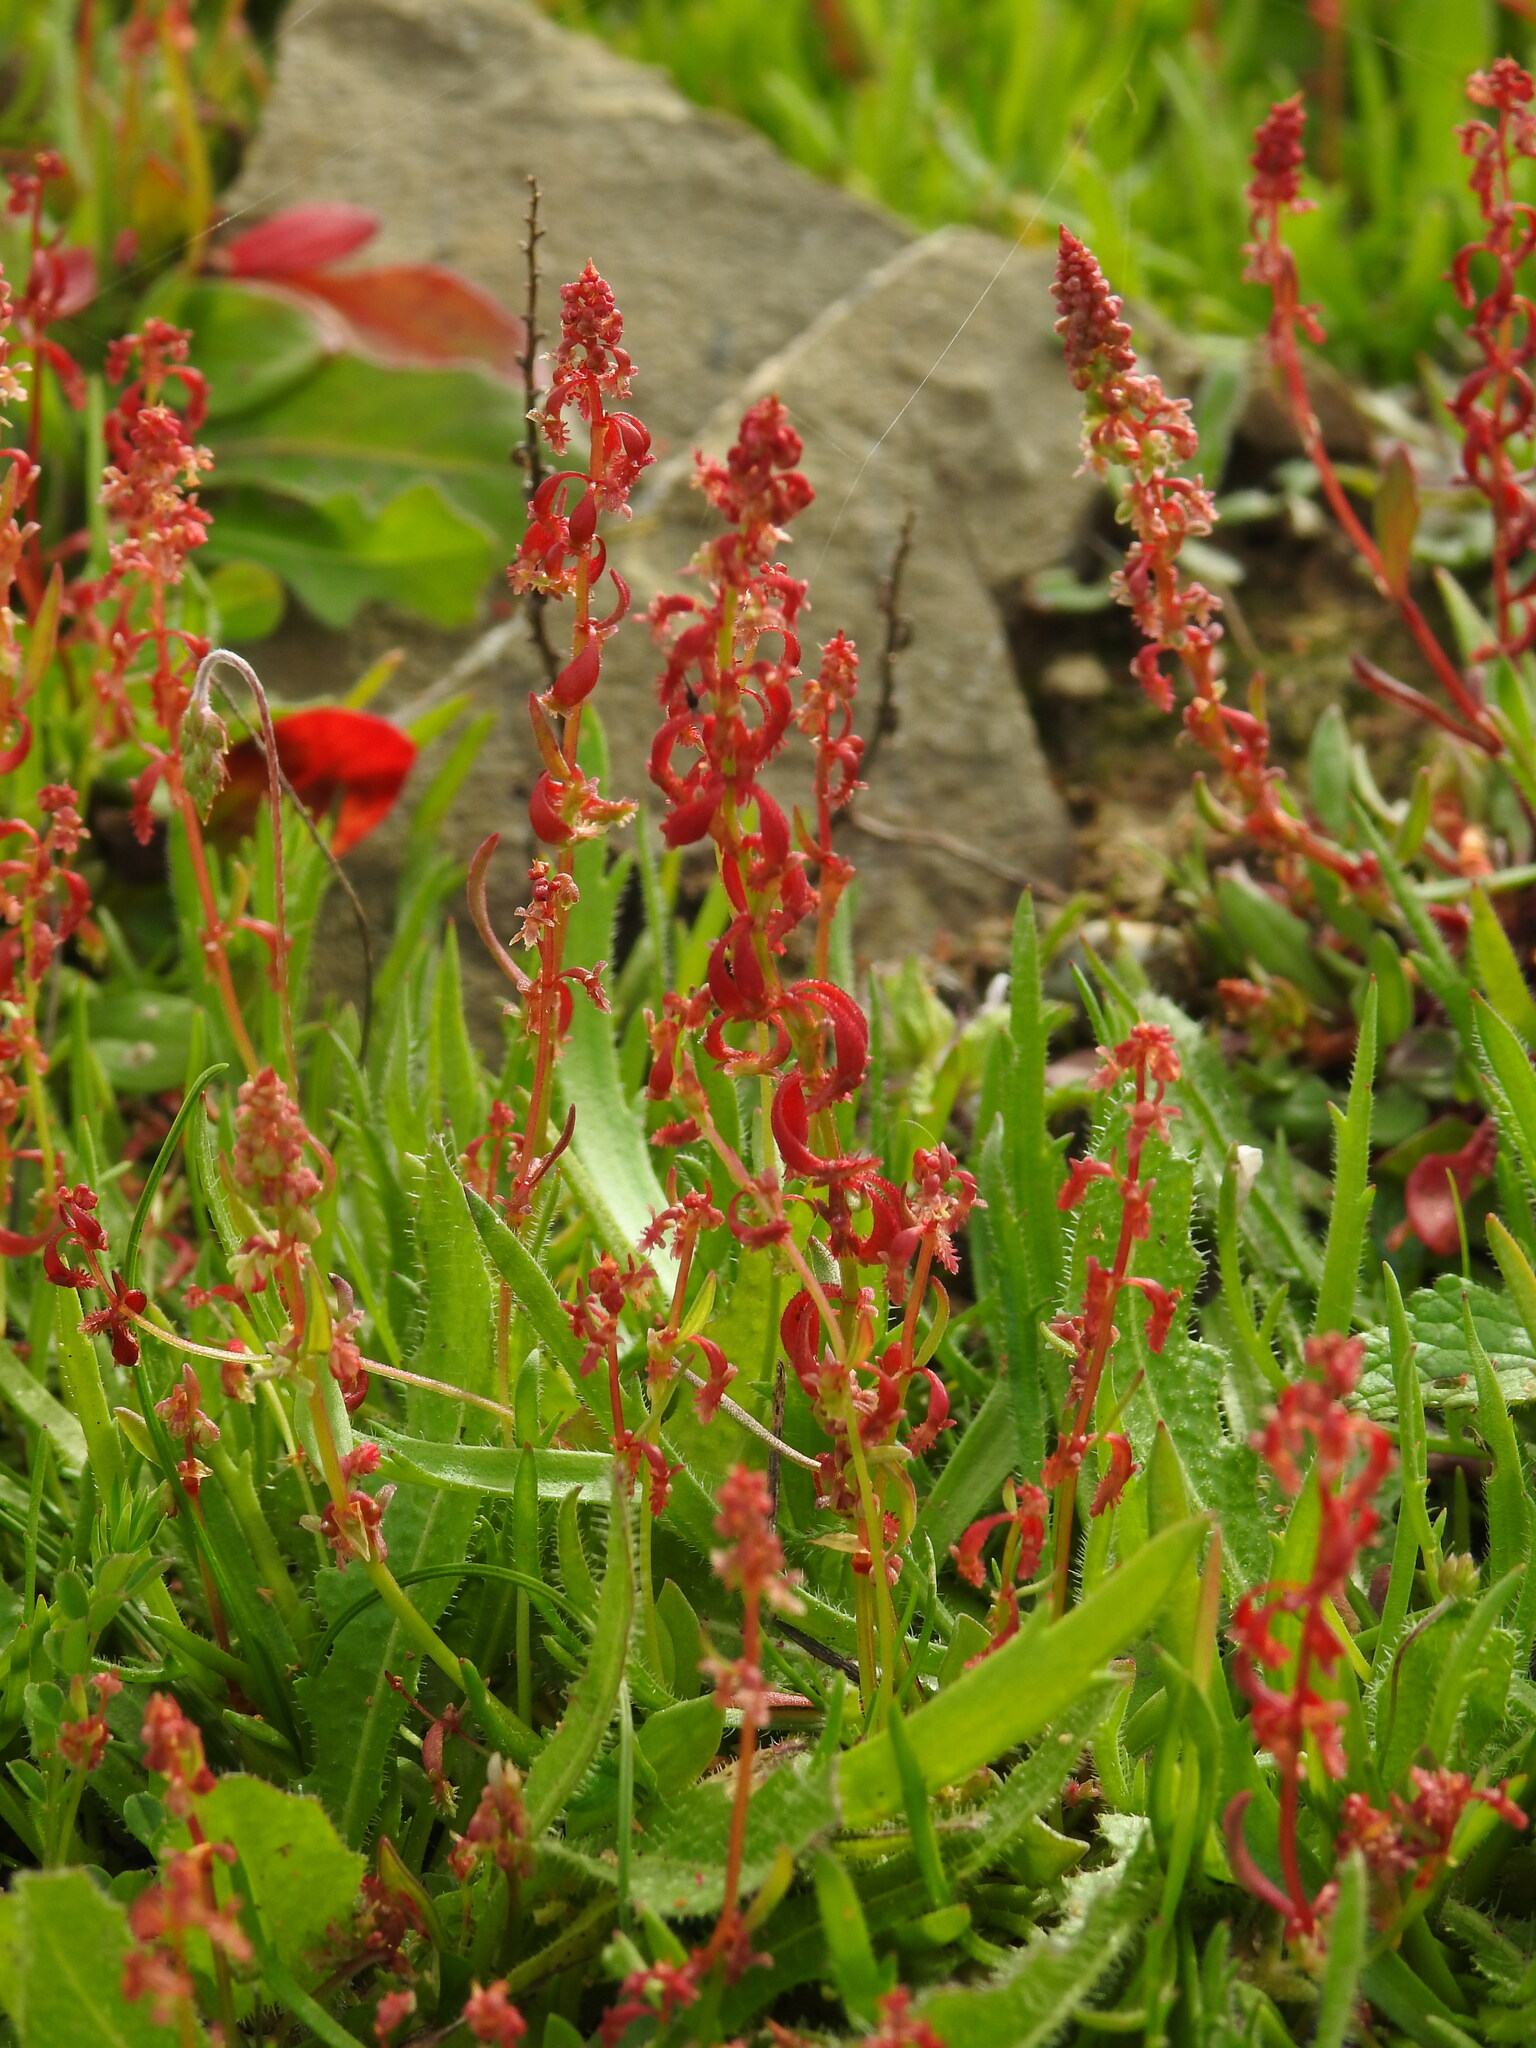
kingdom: Plantae
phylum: Tracheophyta
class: Magnoliopsida
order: Caryophyllales
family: Polygonaceae
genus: Rumex
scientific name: Rumex bucephalophorus
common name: Red dock
